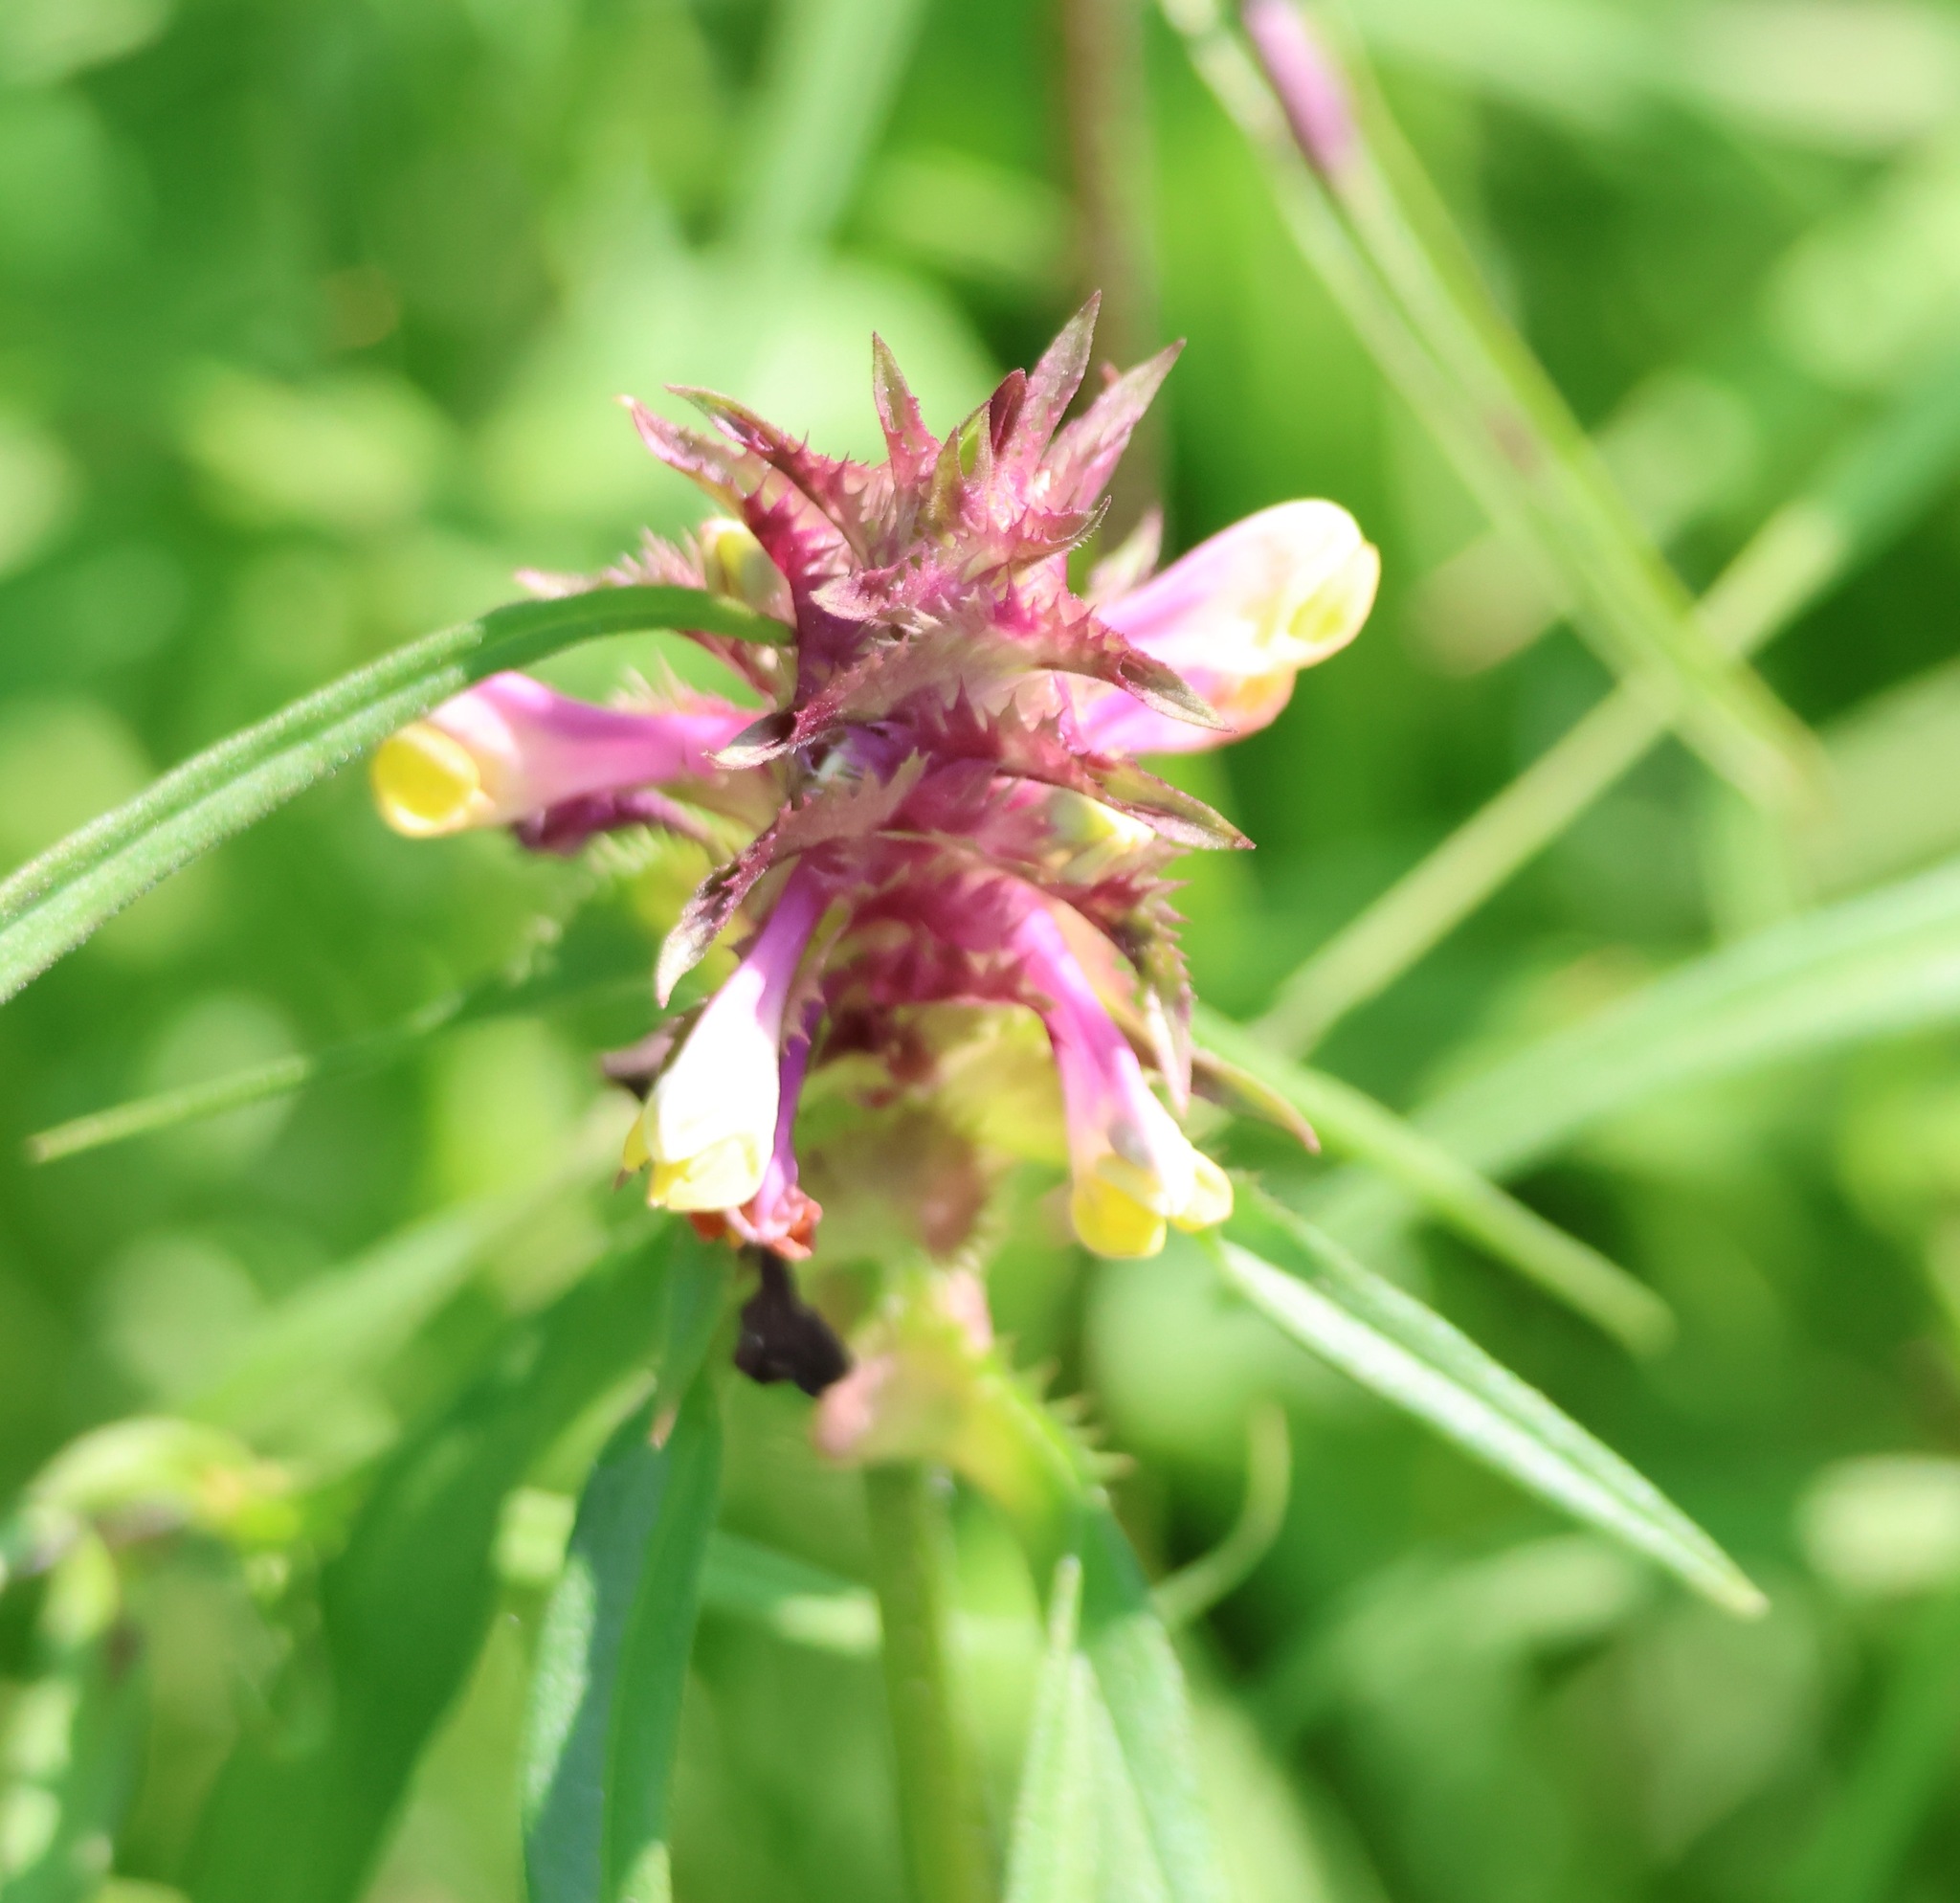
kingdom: Plantae
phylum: Tracheophyta
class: Magnoliopsida
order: Lamiales
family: Orobanchaceae
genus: Melampyrum
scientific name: Melampyrum cristatum
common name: Crested cow-wheat
